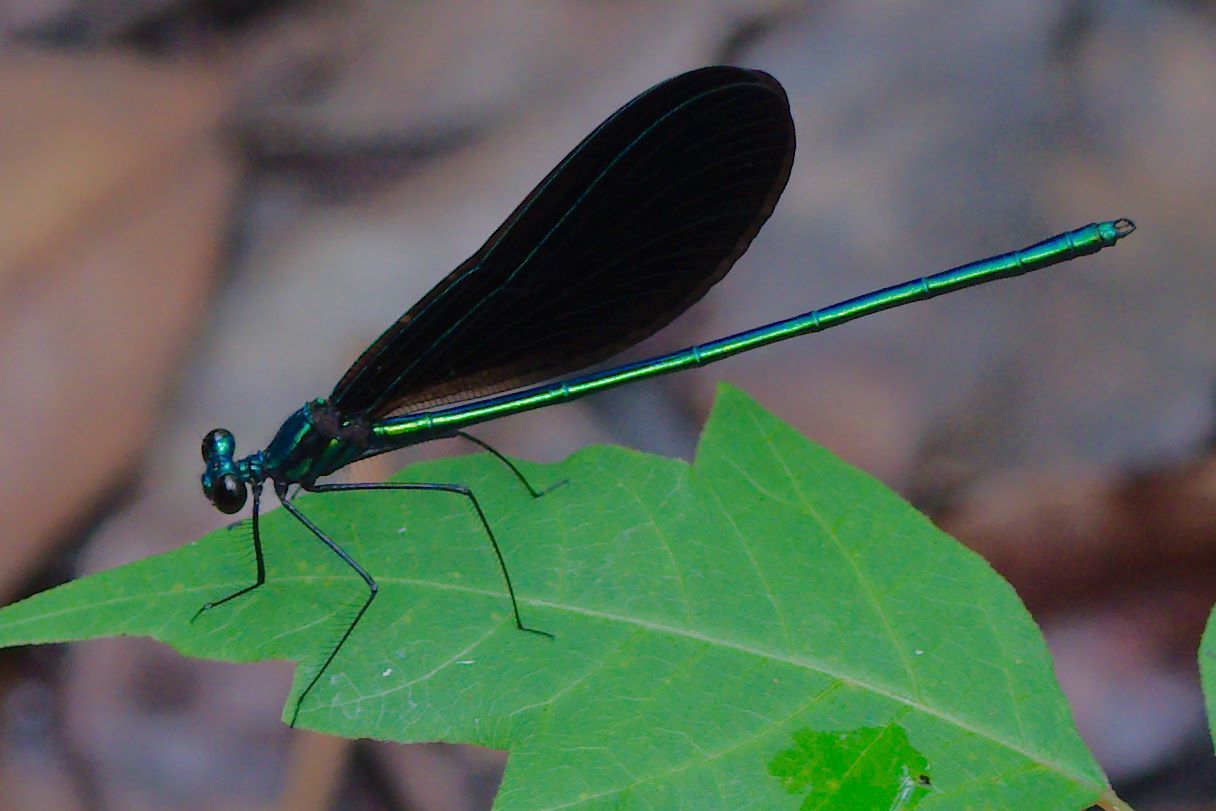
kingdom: Animalia
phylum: Arthropoda
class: Insecta
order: Odonata
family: Calopterygidae
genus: Calopteryx
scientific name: Calopteryx maculata
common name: Ebony jewelwing
